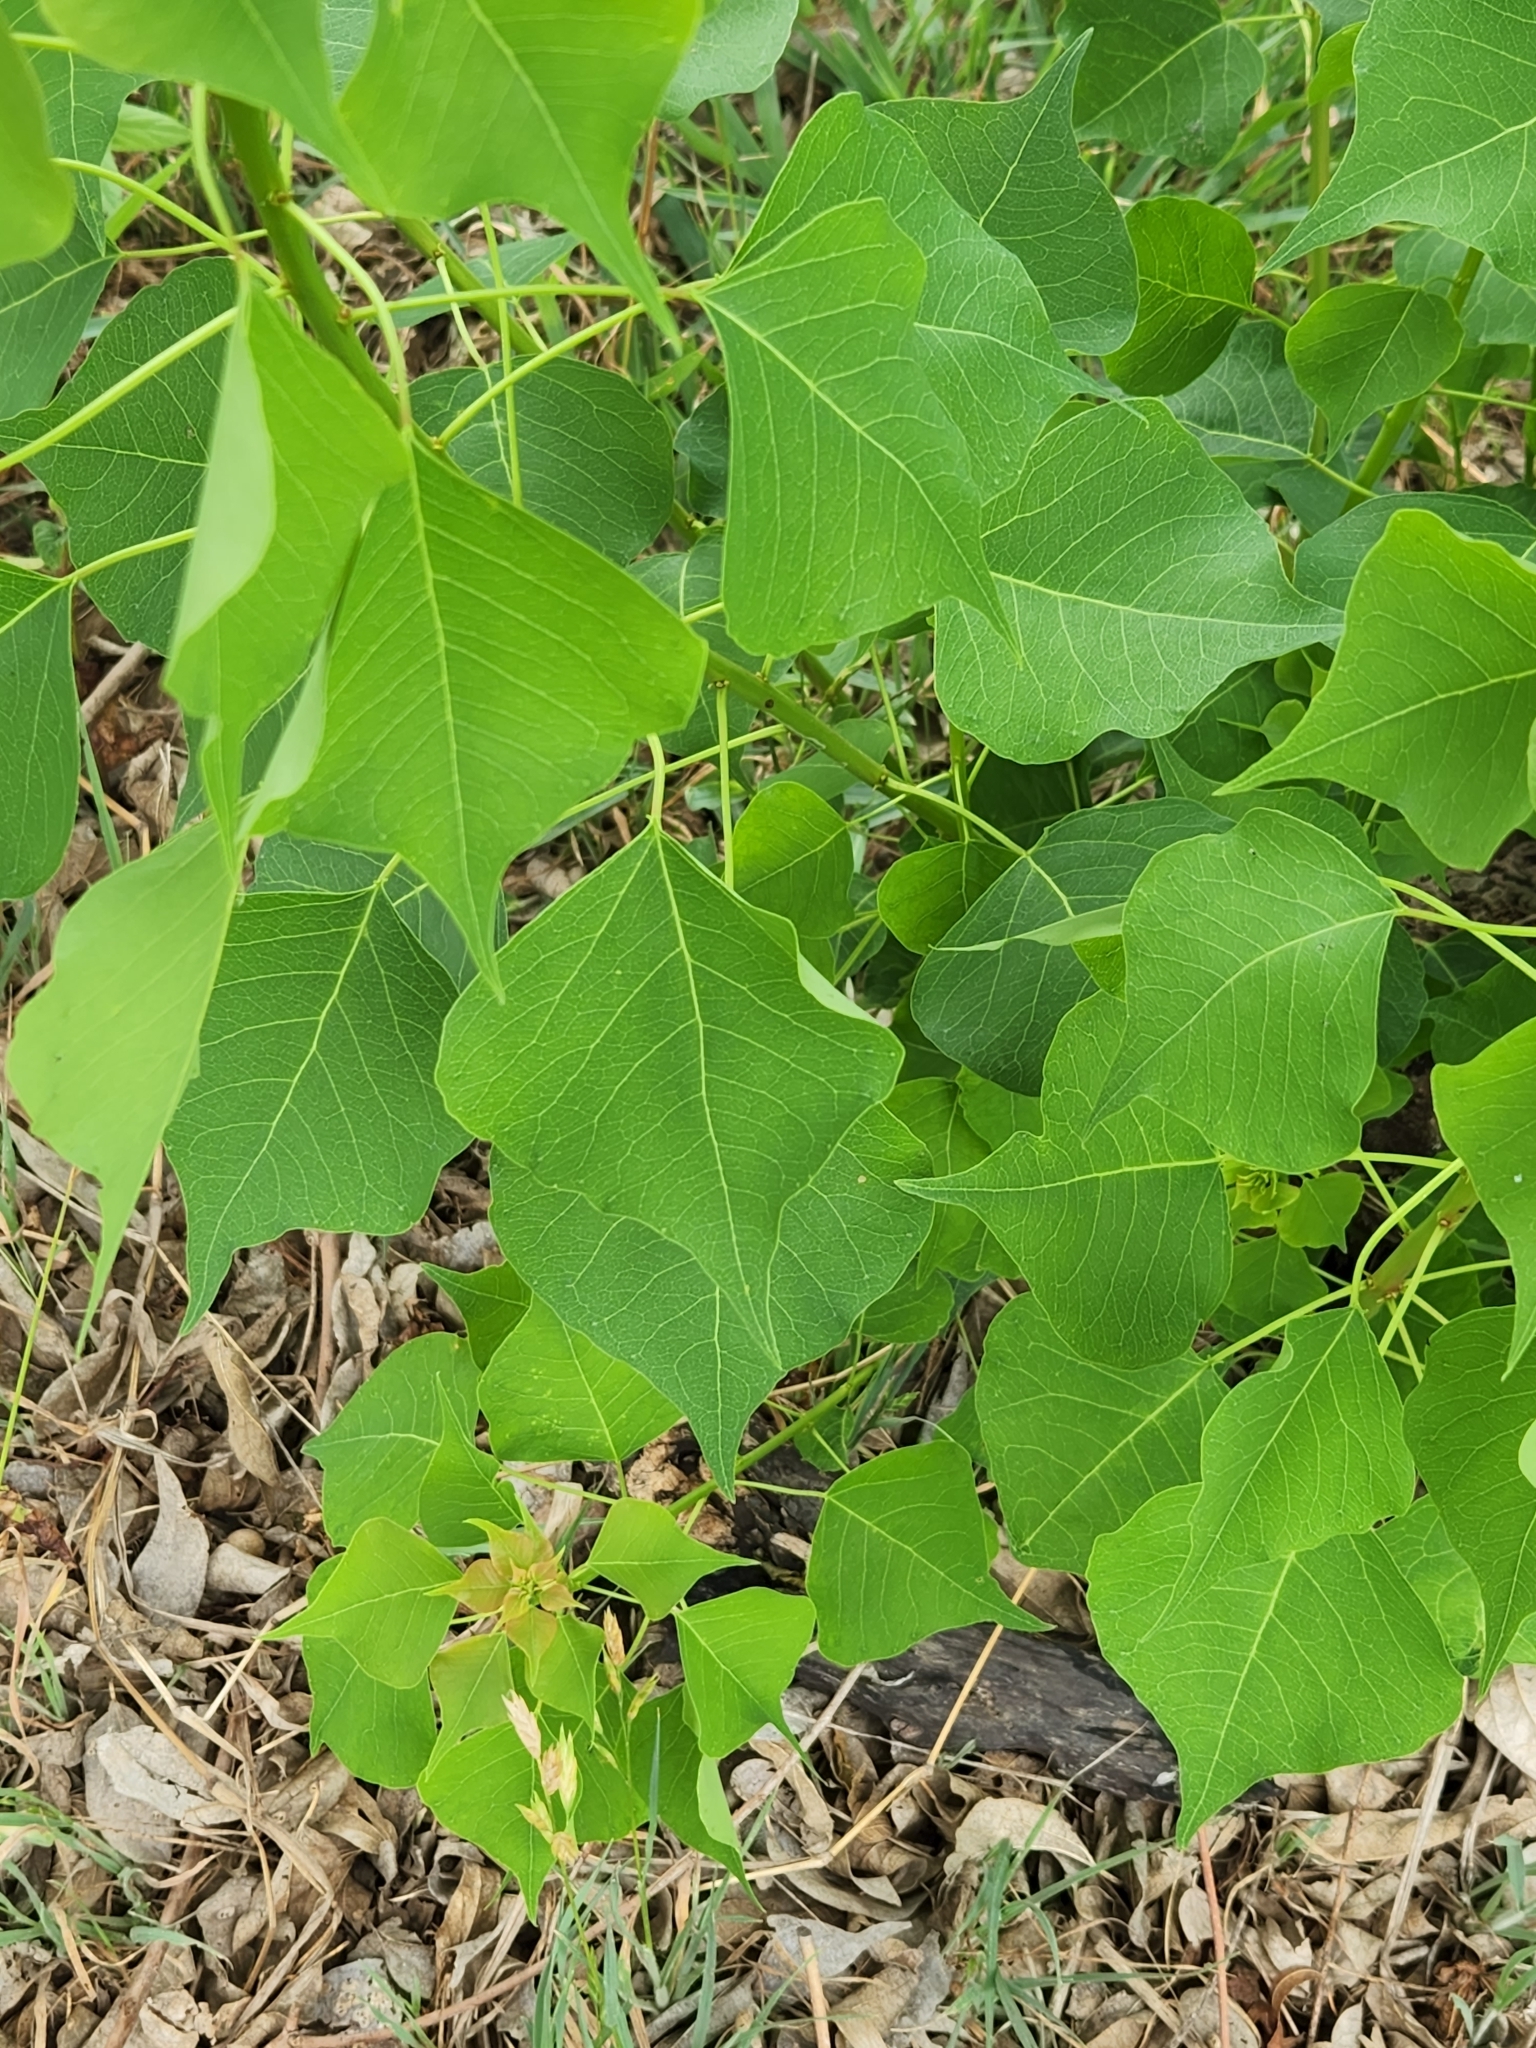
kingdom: Plantae
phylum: Tracheophyta
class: Magnoliopsida
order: Malpighiales
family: Euphorbiaceae
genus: Triadica
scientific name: Triadica sebifera
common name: Chinese tallow
